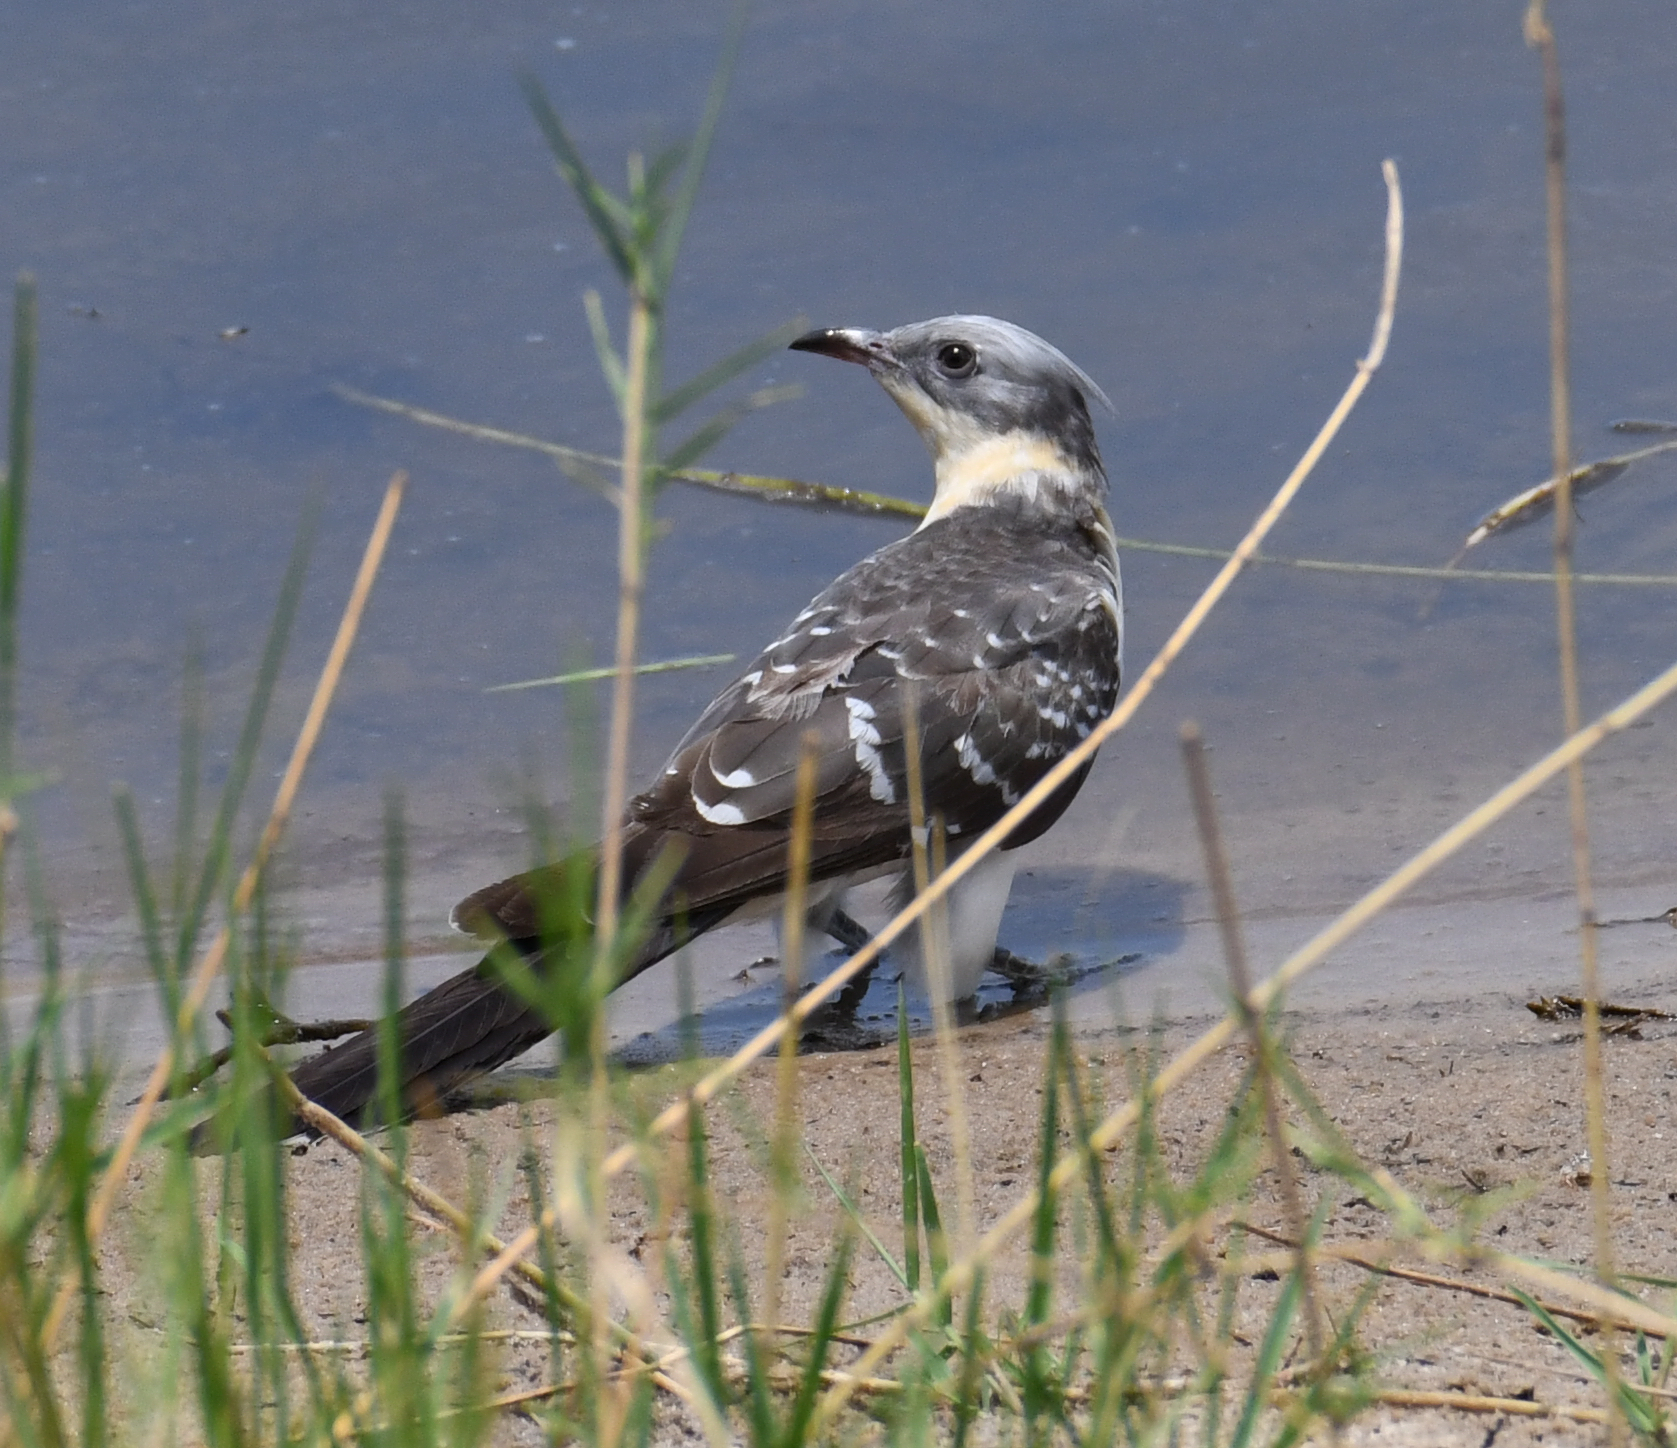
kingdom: Animalia
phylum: Chordata
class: Aves
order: Cuculiformes
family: Cuculidae
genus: Clamator
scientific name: Clamator glandarius
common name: Great spotted cuckoo
